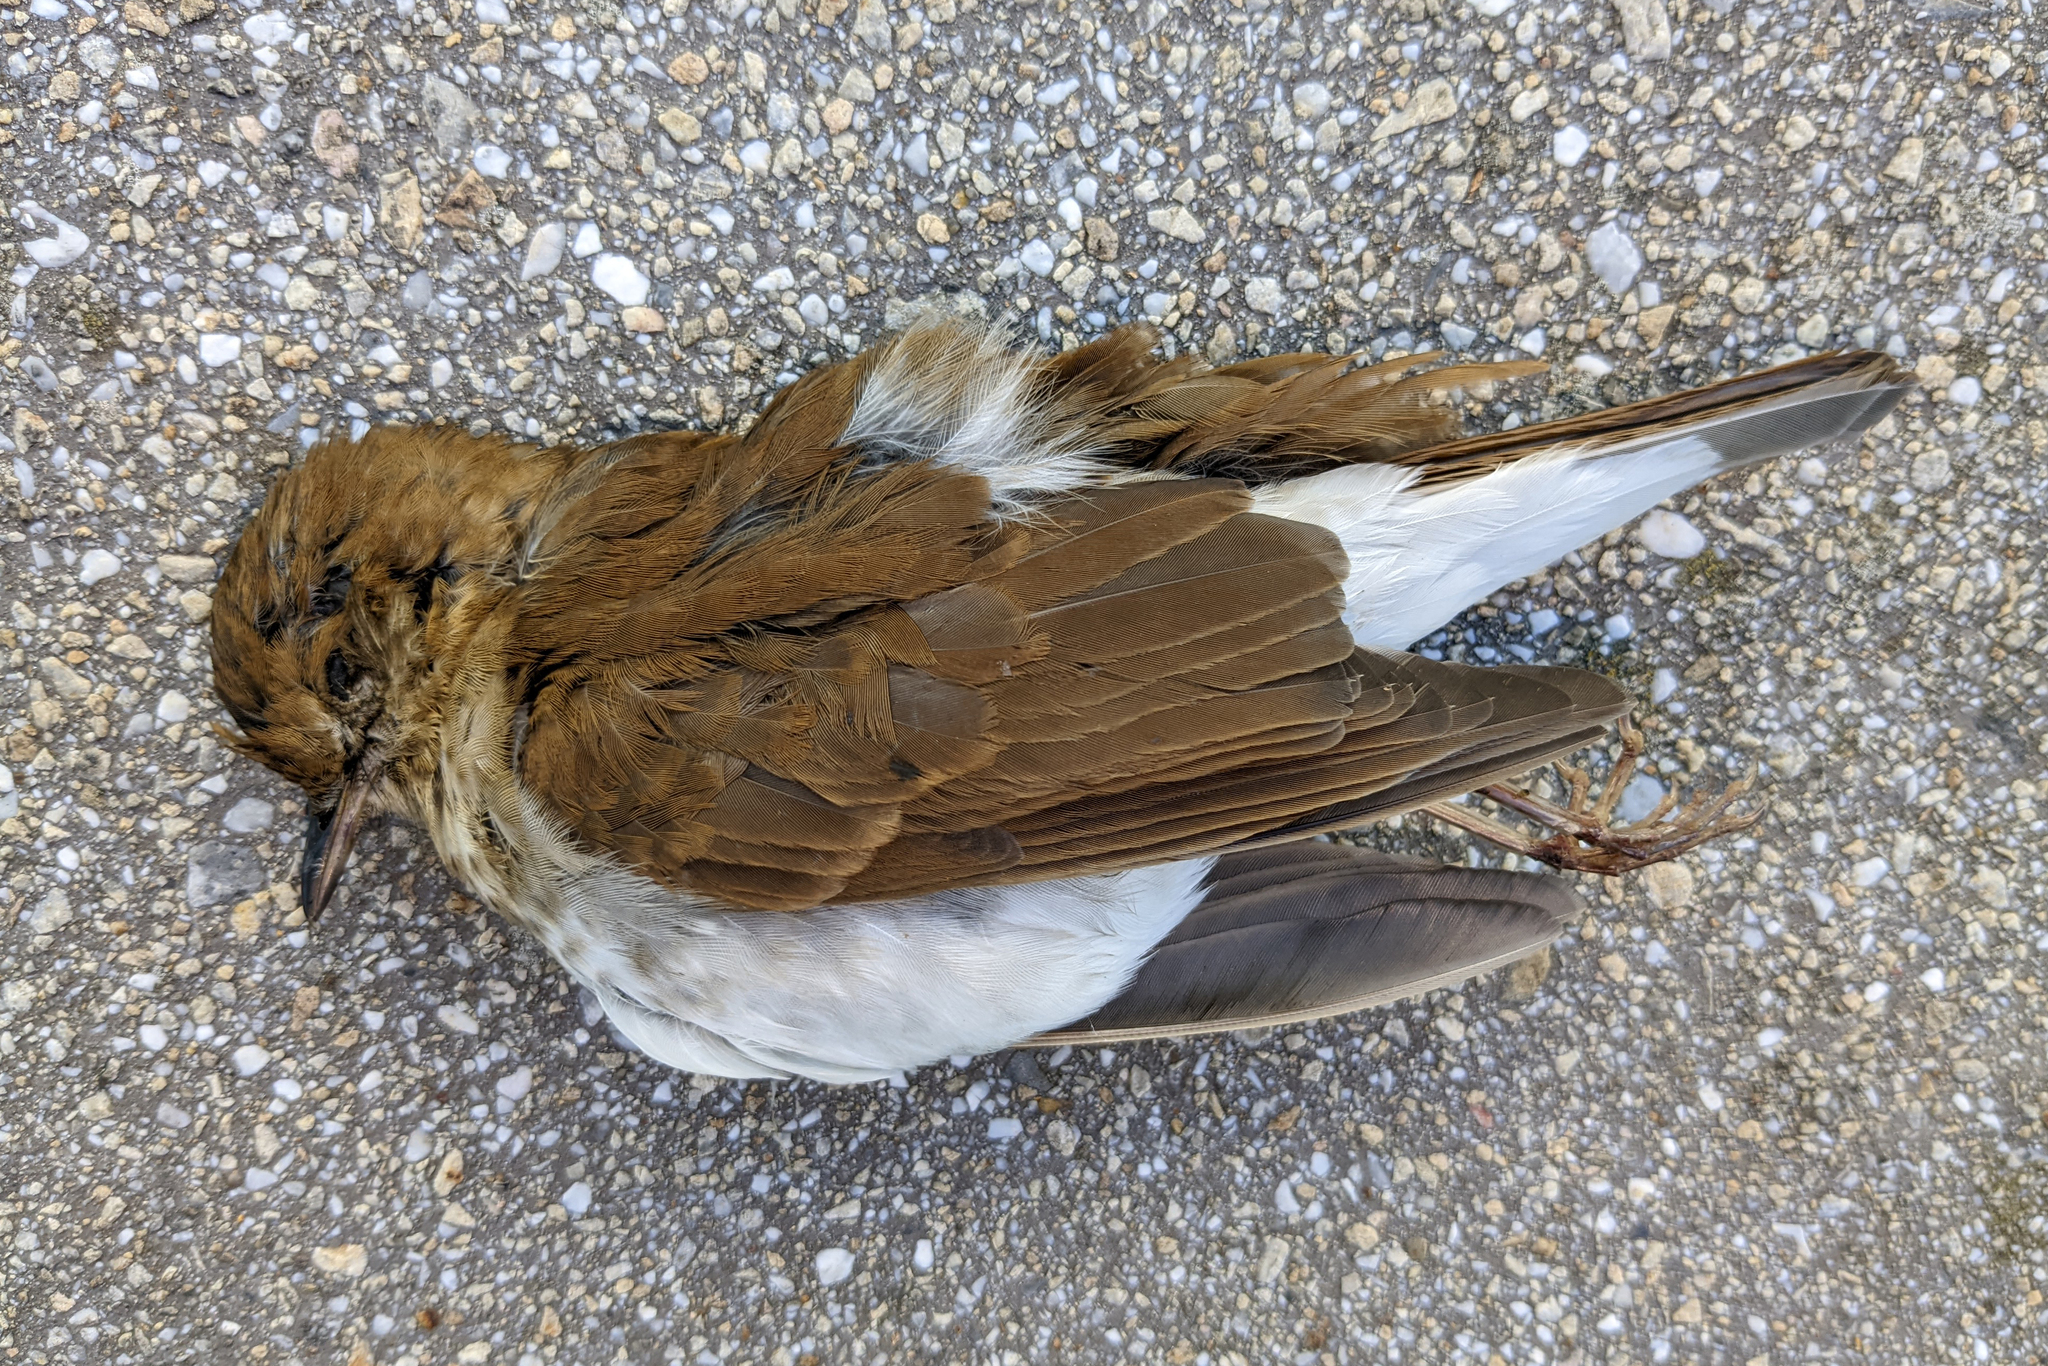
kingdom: Animalia
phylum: Chordata
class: Aves
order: Passeriformes
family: Turdidae
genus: Catharus
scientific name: Catharus fuscescens
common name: Veery
